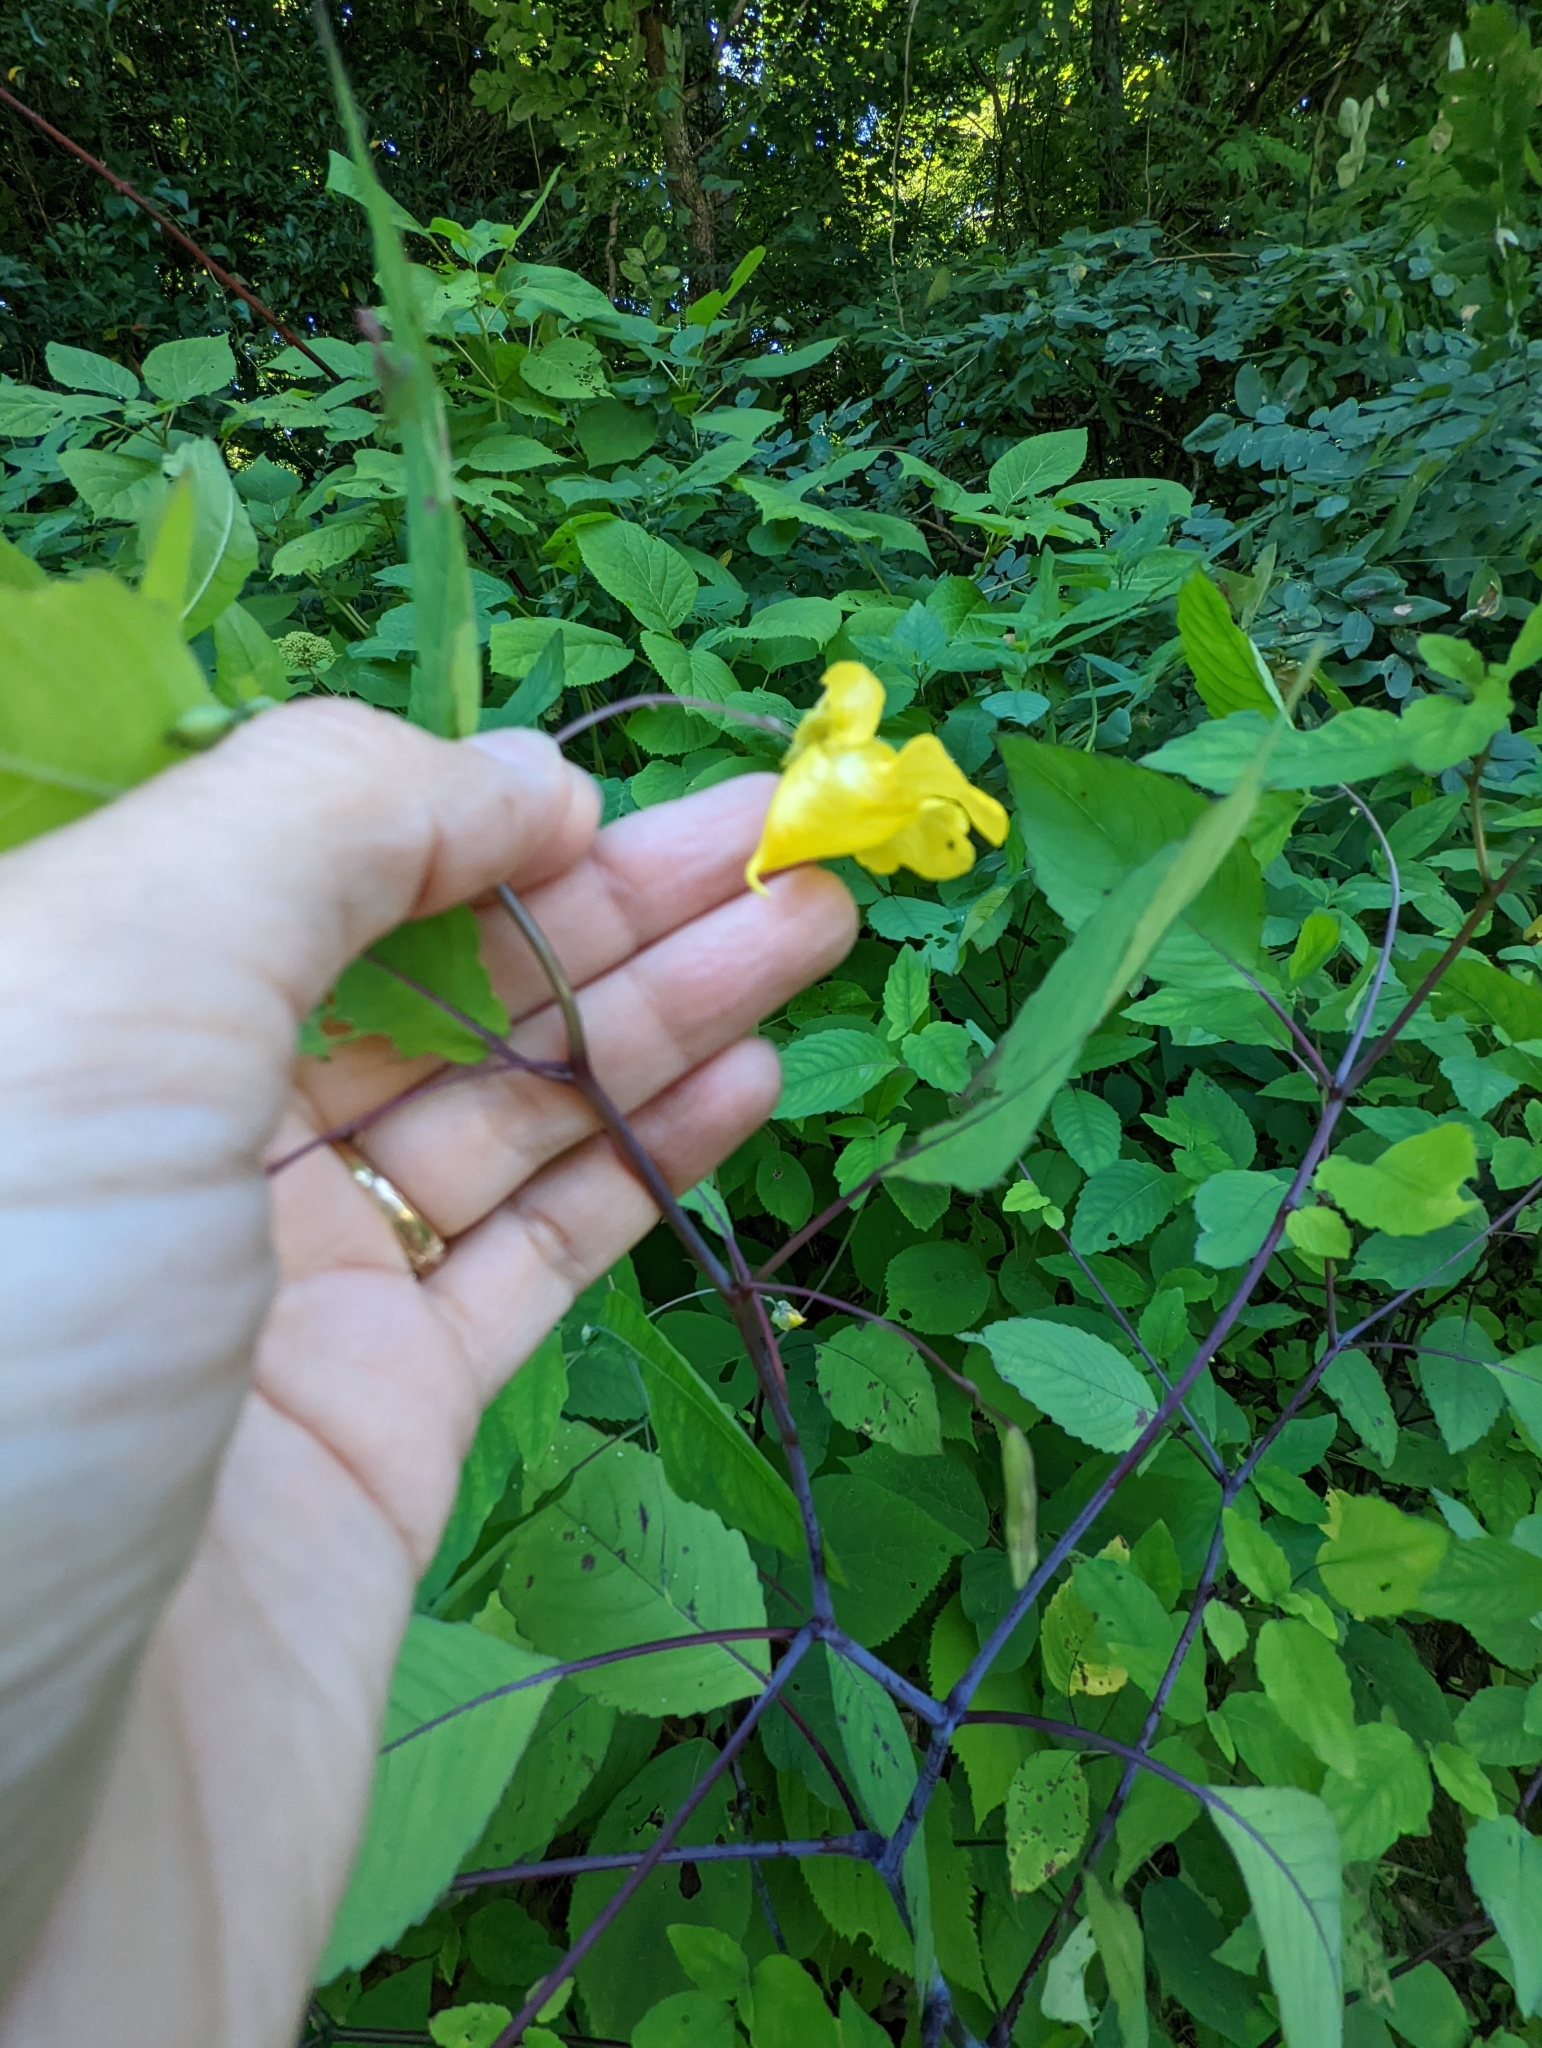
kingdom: Plantae
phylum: Tracheophyta
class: Magnoliopsida
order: Ericales
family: Balsaminaceae
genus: Impatiens
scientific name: Impatiens pallida
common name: Pale snapweed
